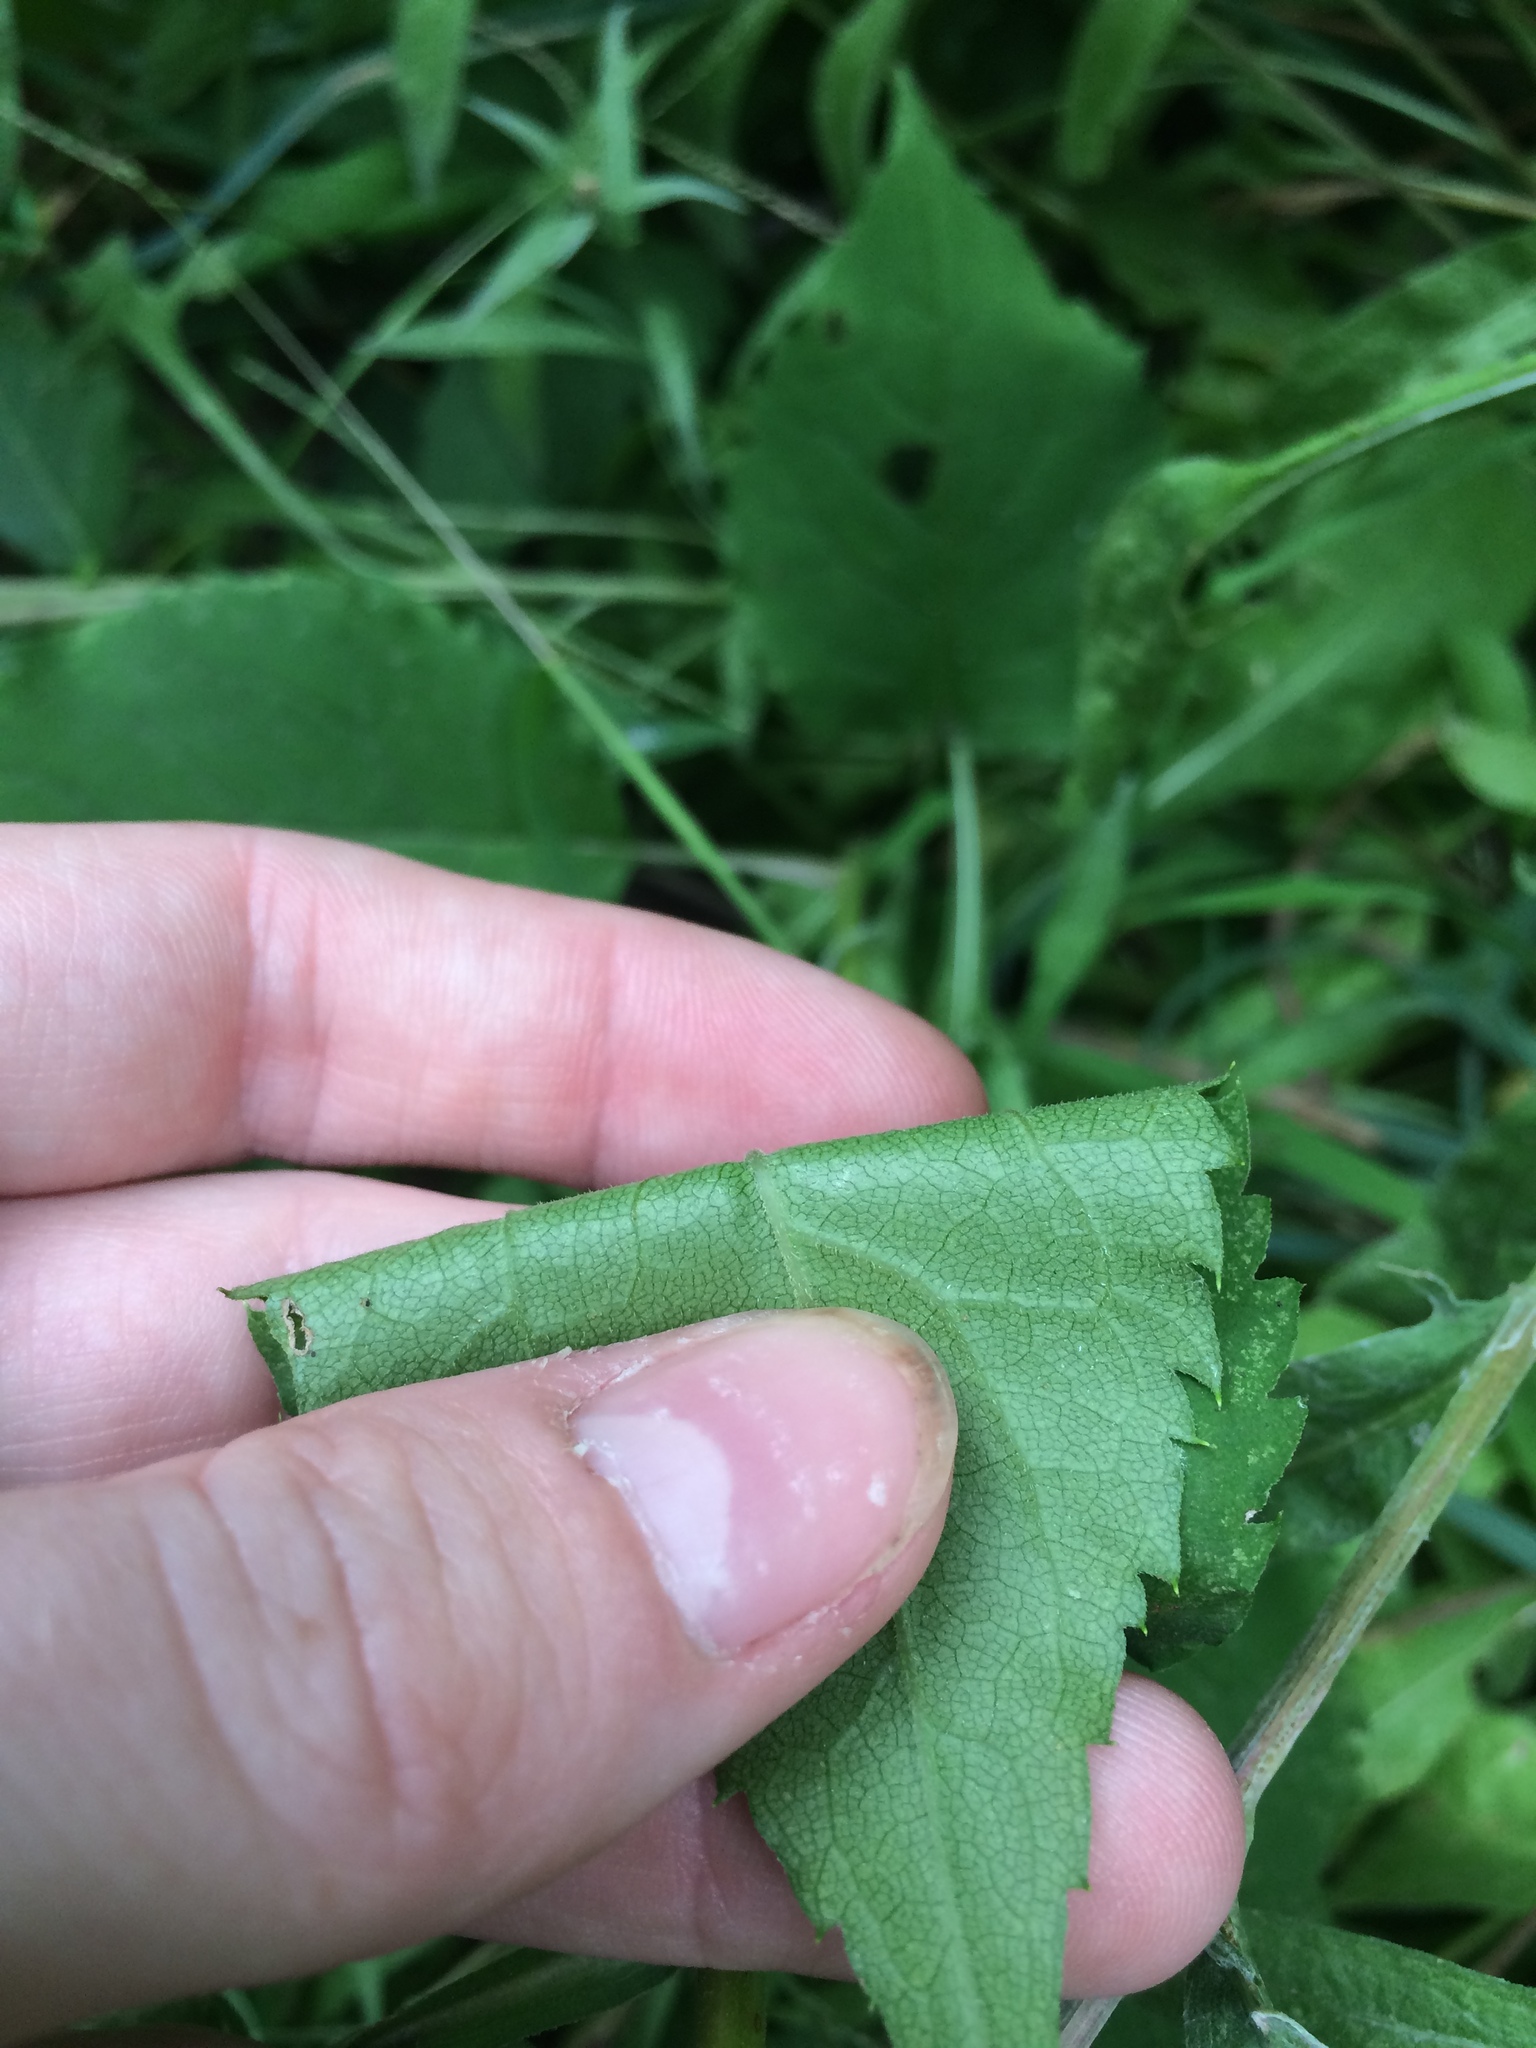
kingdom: Plantae
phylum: Tracheophyta
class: Magnoliopsida
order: Asterales
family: Asteraceae
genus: Eurybia
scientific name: Eurybia macrophylla
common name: Big-leaved aster
